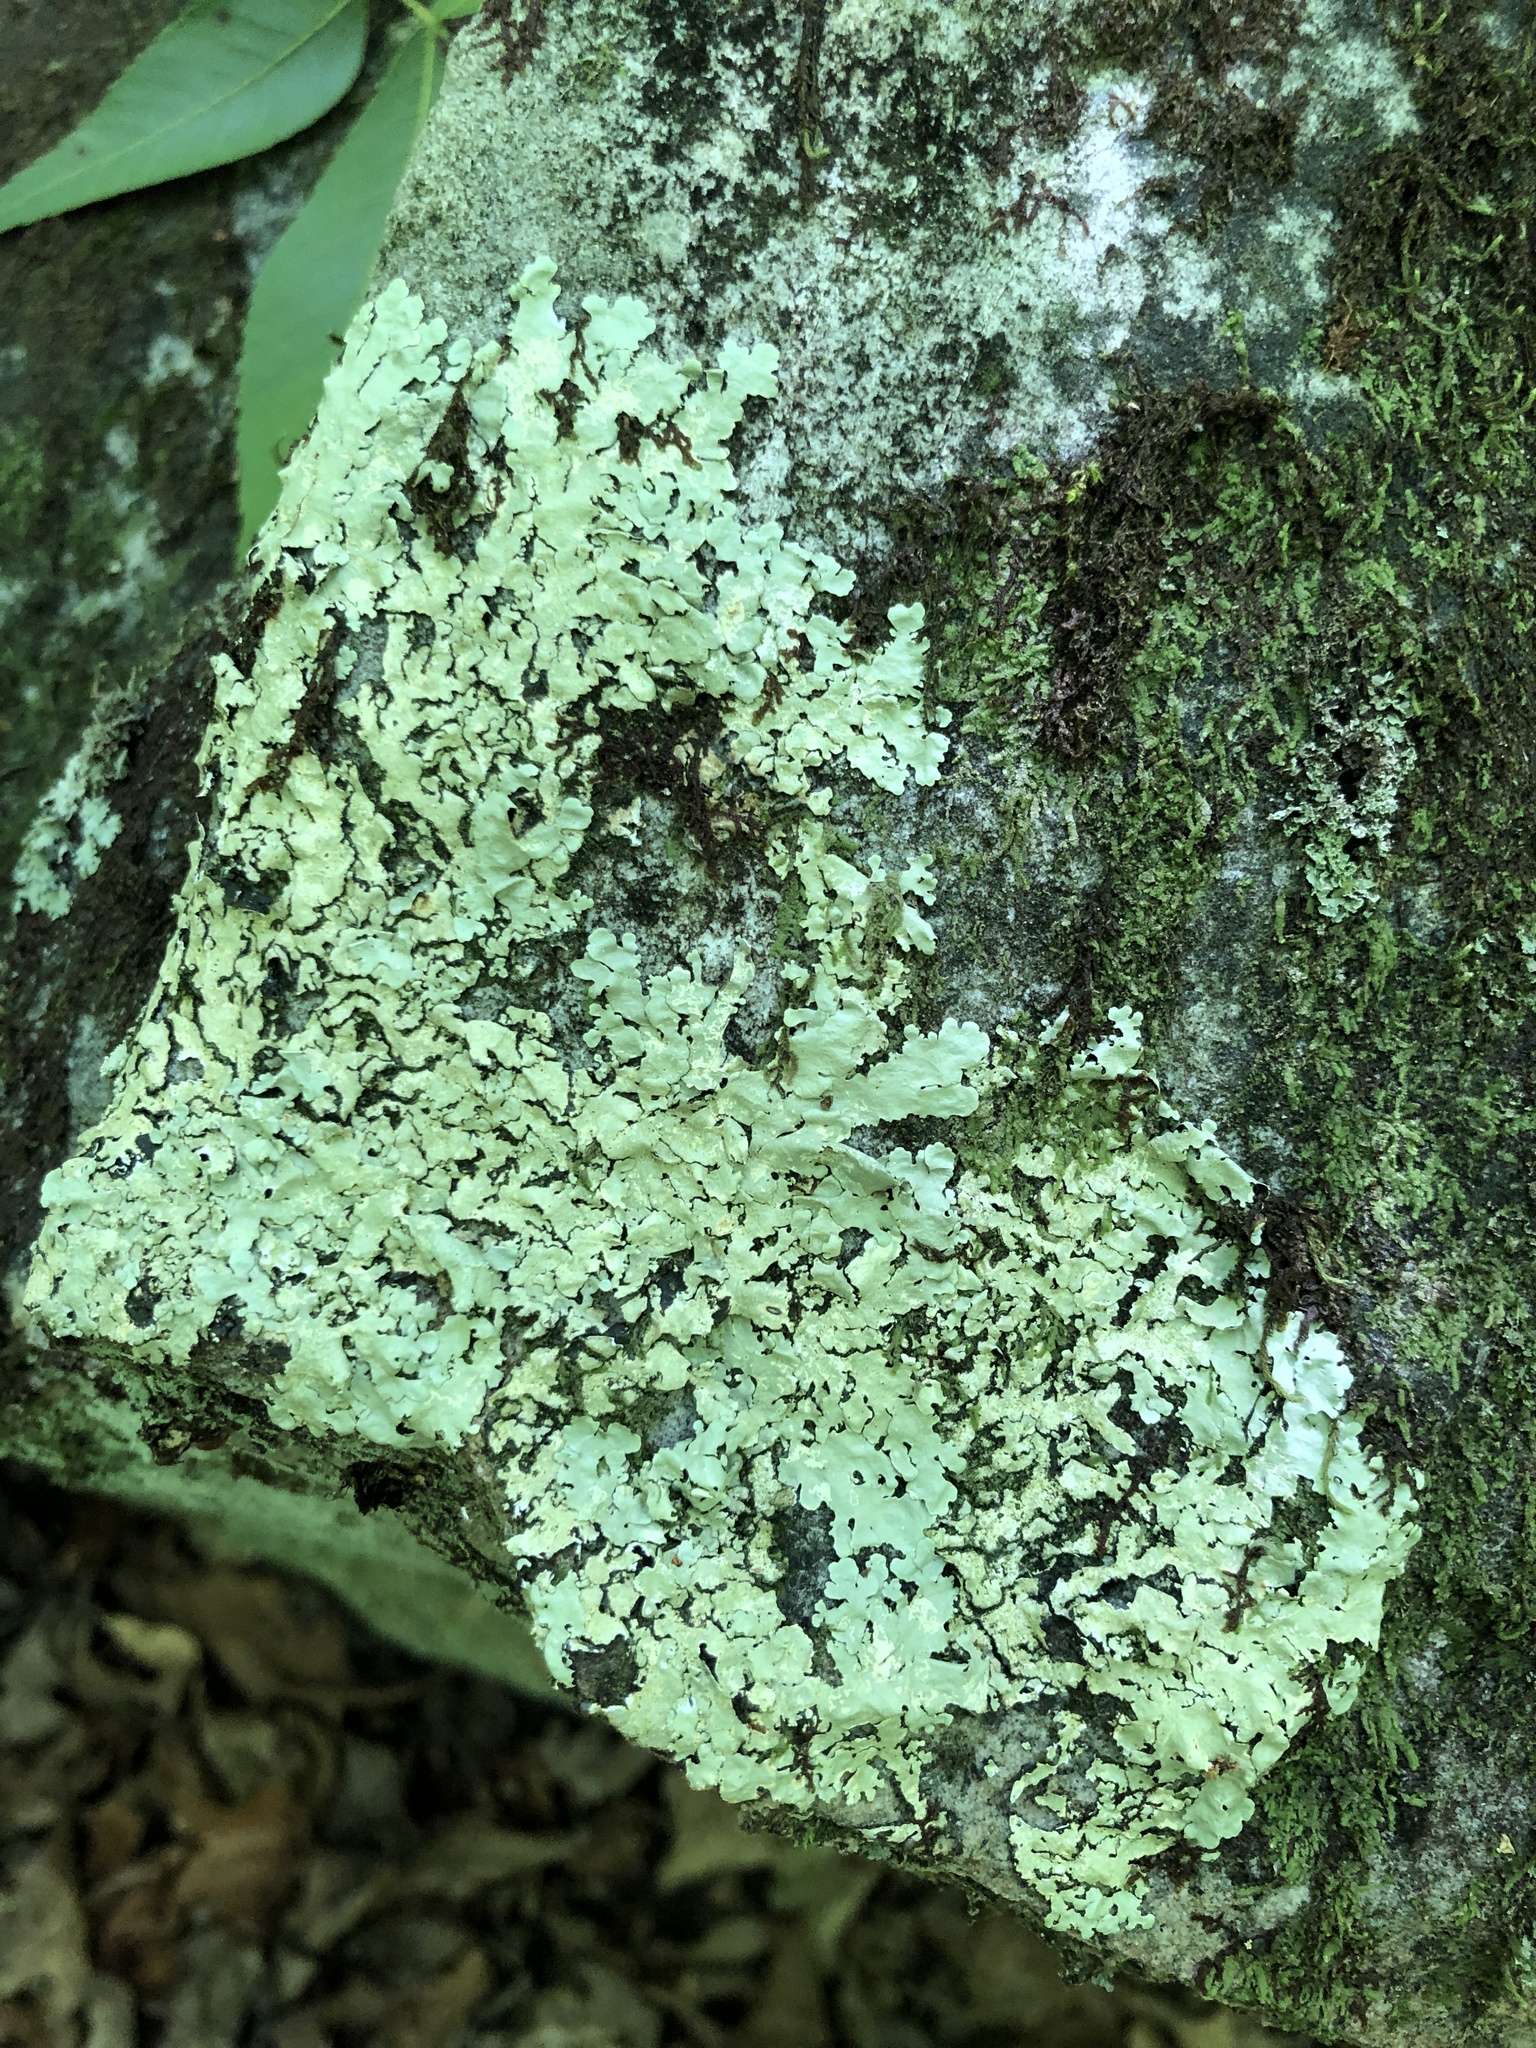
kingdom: Fungi
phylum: Ascomycota
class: Lecanoromycetes
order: Lecanorales
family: Parmeliaceae
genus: Flavoparmelia
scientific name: Flavoparmelia baltimorensis
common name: Rock greenshield
